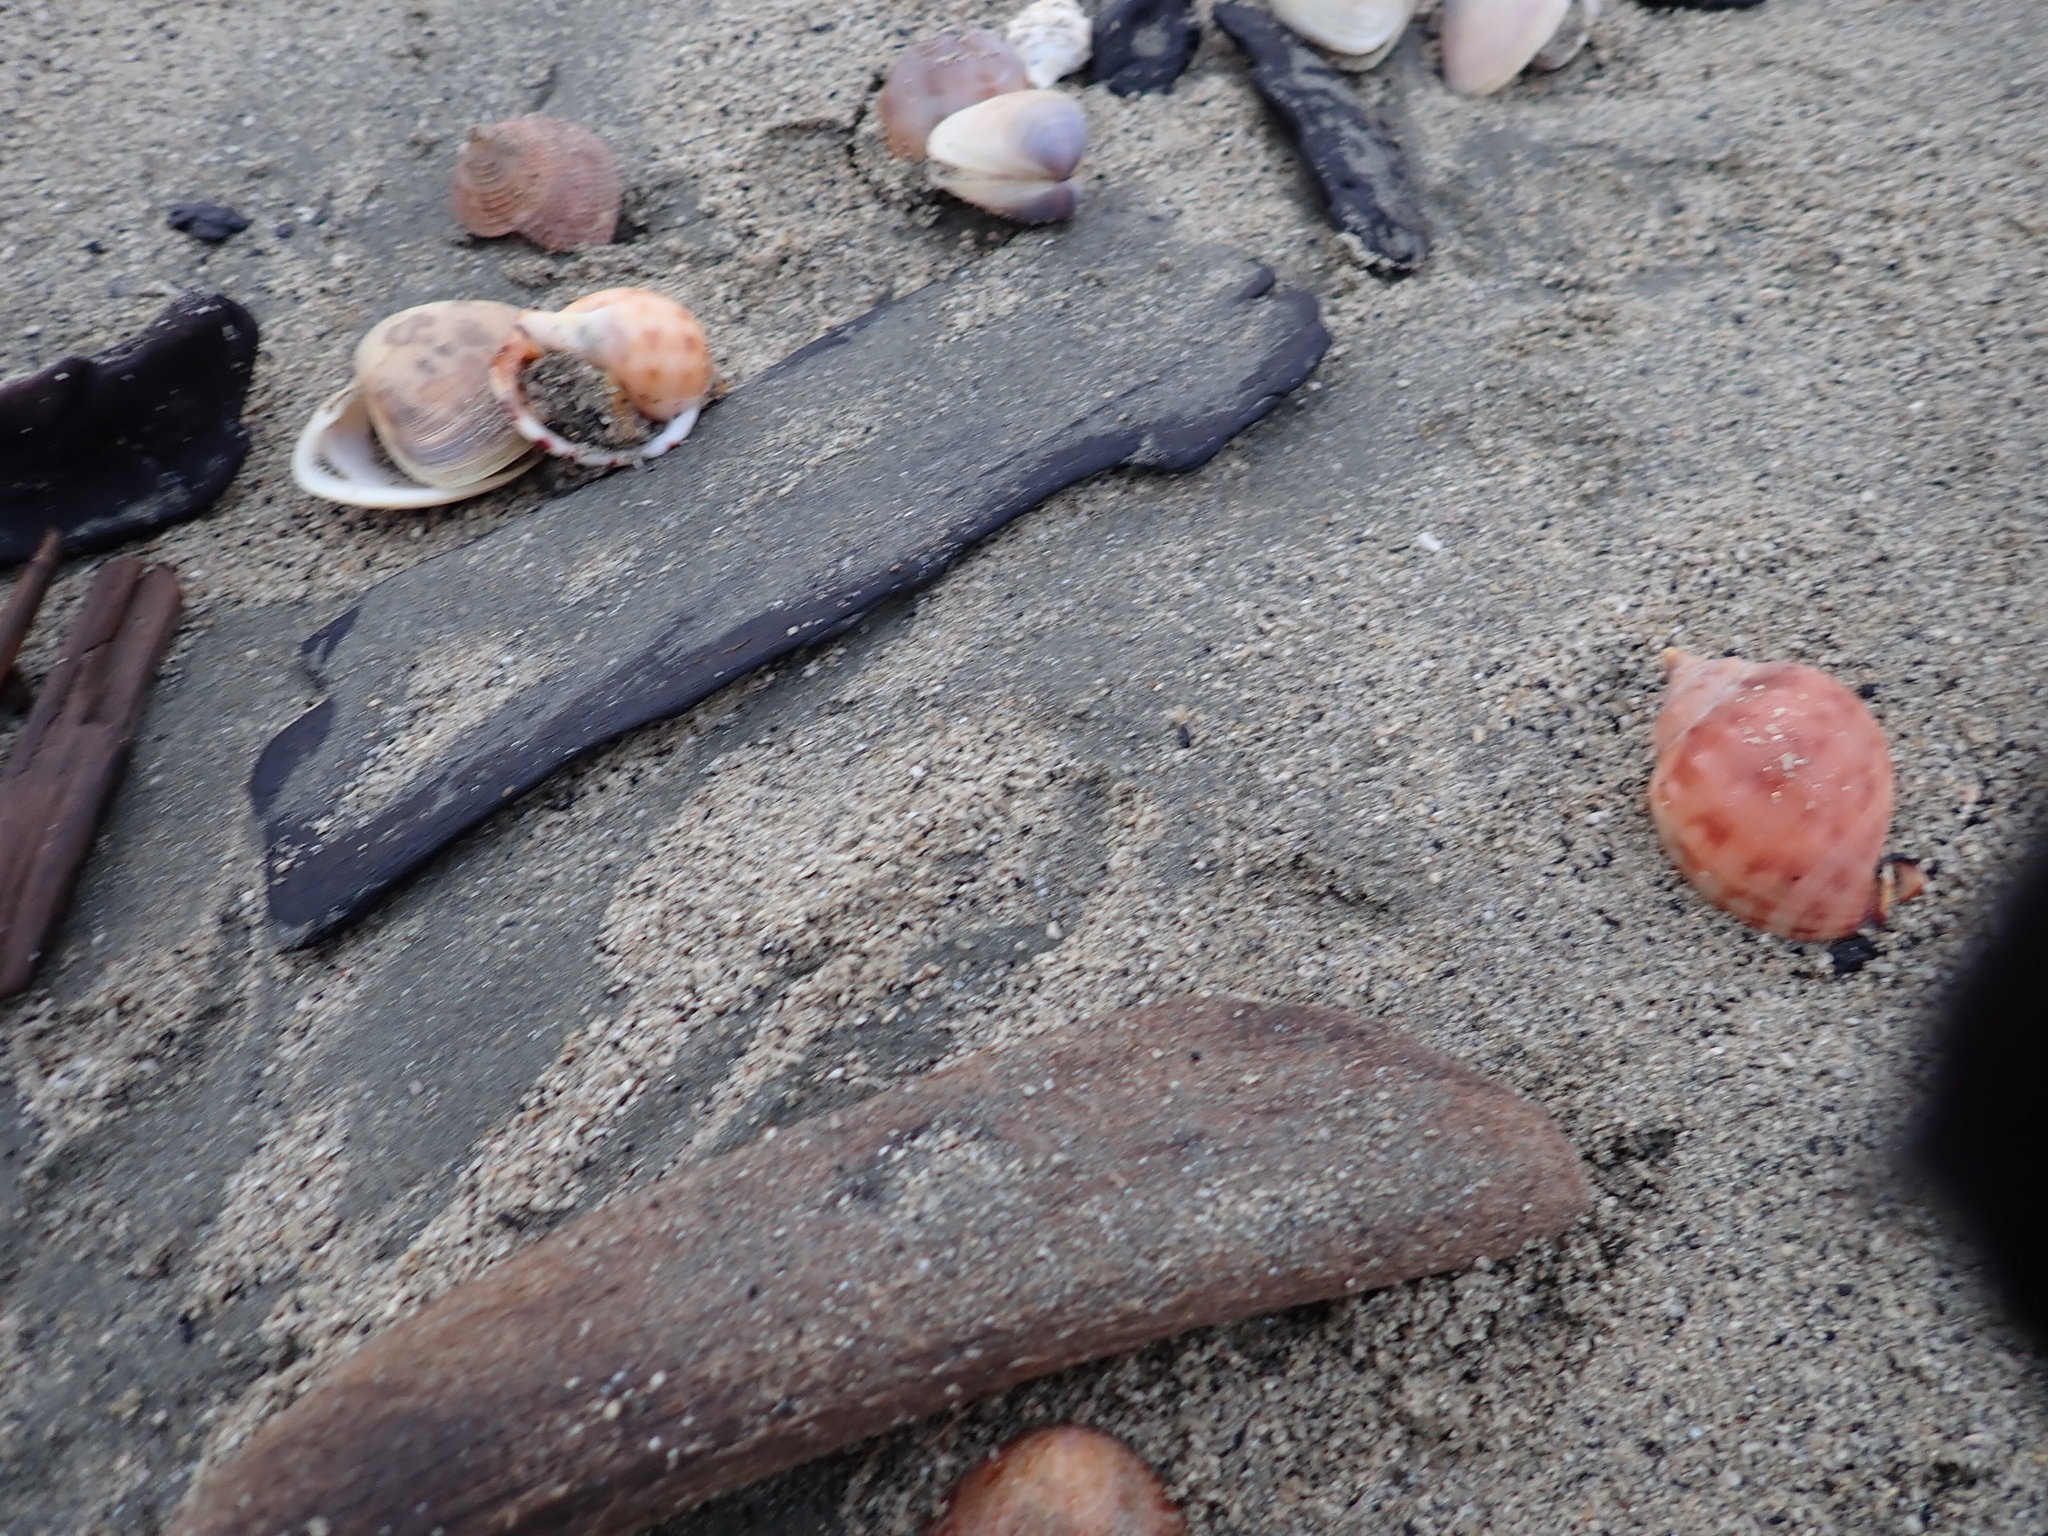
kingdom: Animalia
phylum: Mollusca
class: Gastropoda
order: Littorinimorpha
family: Cassidae
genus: Semicassis
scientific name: Semicassis pyrum
